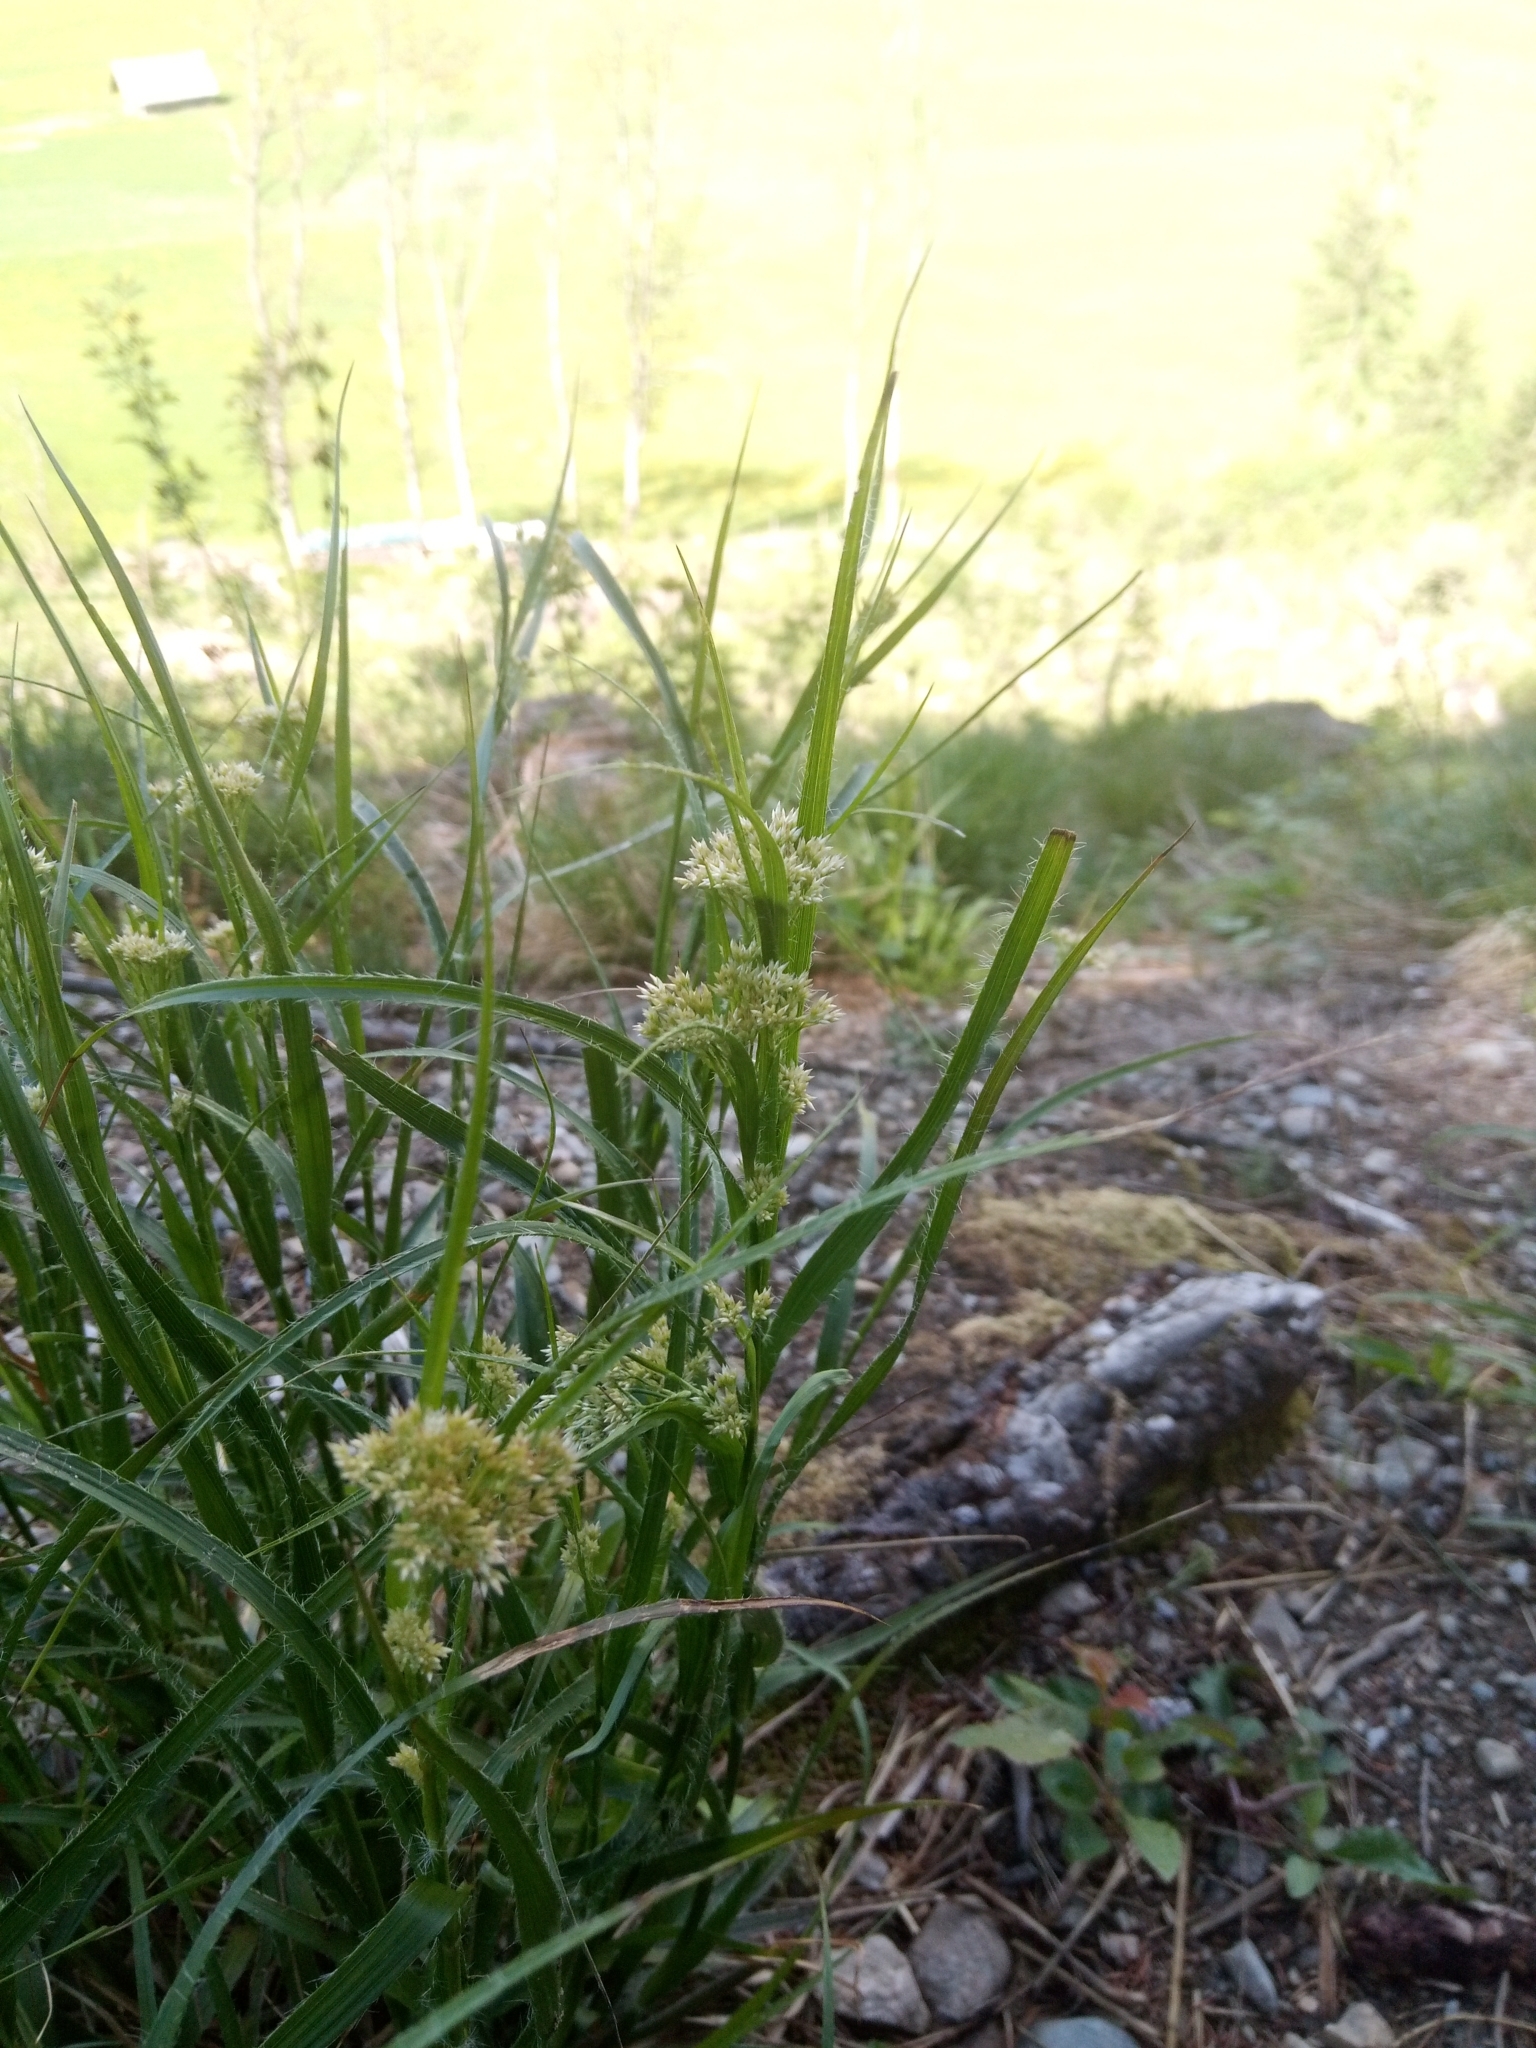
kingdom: Plantae
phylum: Tracheophyta
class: Liliopsida
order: Poales
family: Juncaceae
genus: Luzula
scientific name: Luzula luzuloides
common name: White wood-rush
